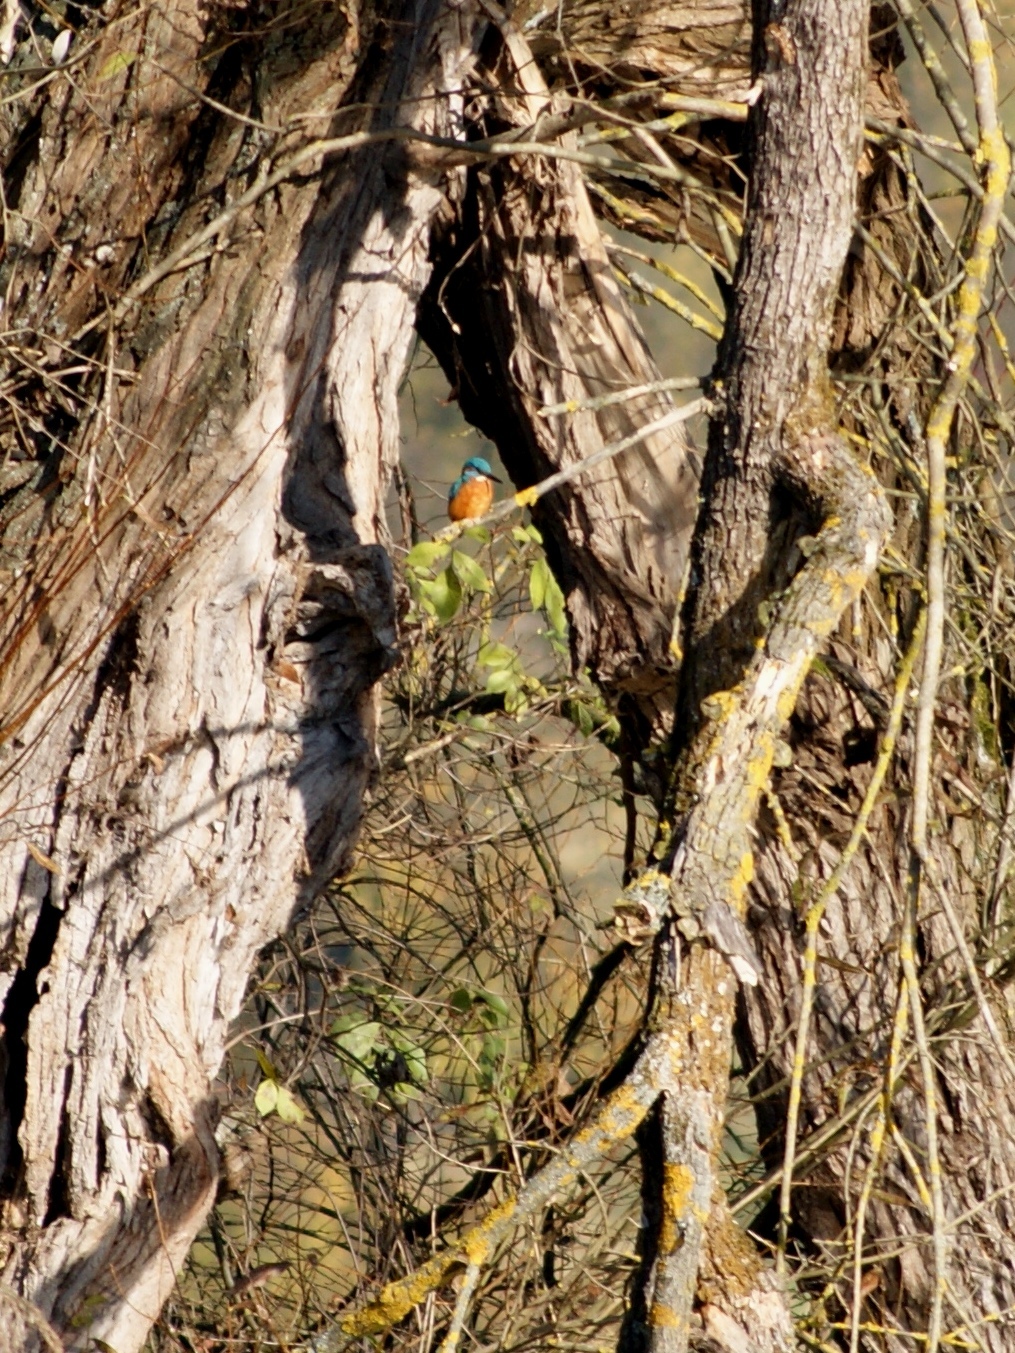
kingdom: Animalia
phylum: Chordata
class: Aves
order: Coraciiformes
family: Alcedinidae
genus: Alcedo
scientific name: Alcedo atthis
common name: Common kingfisher
